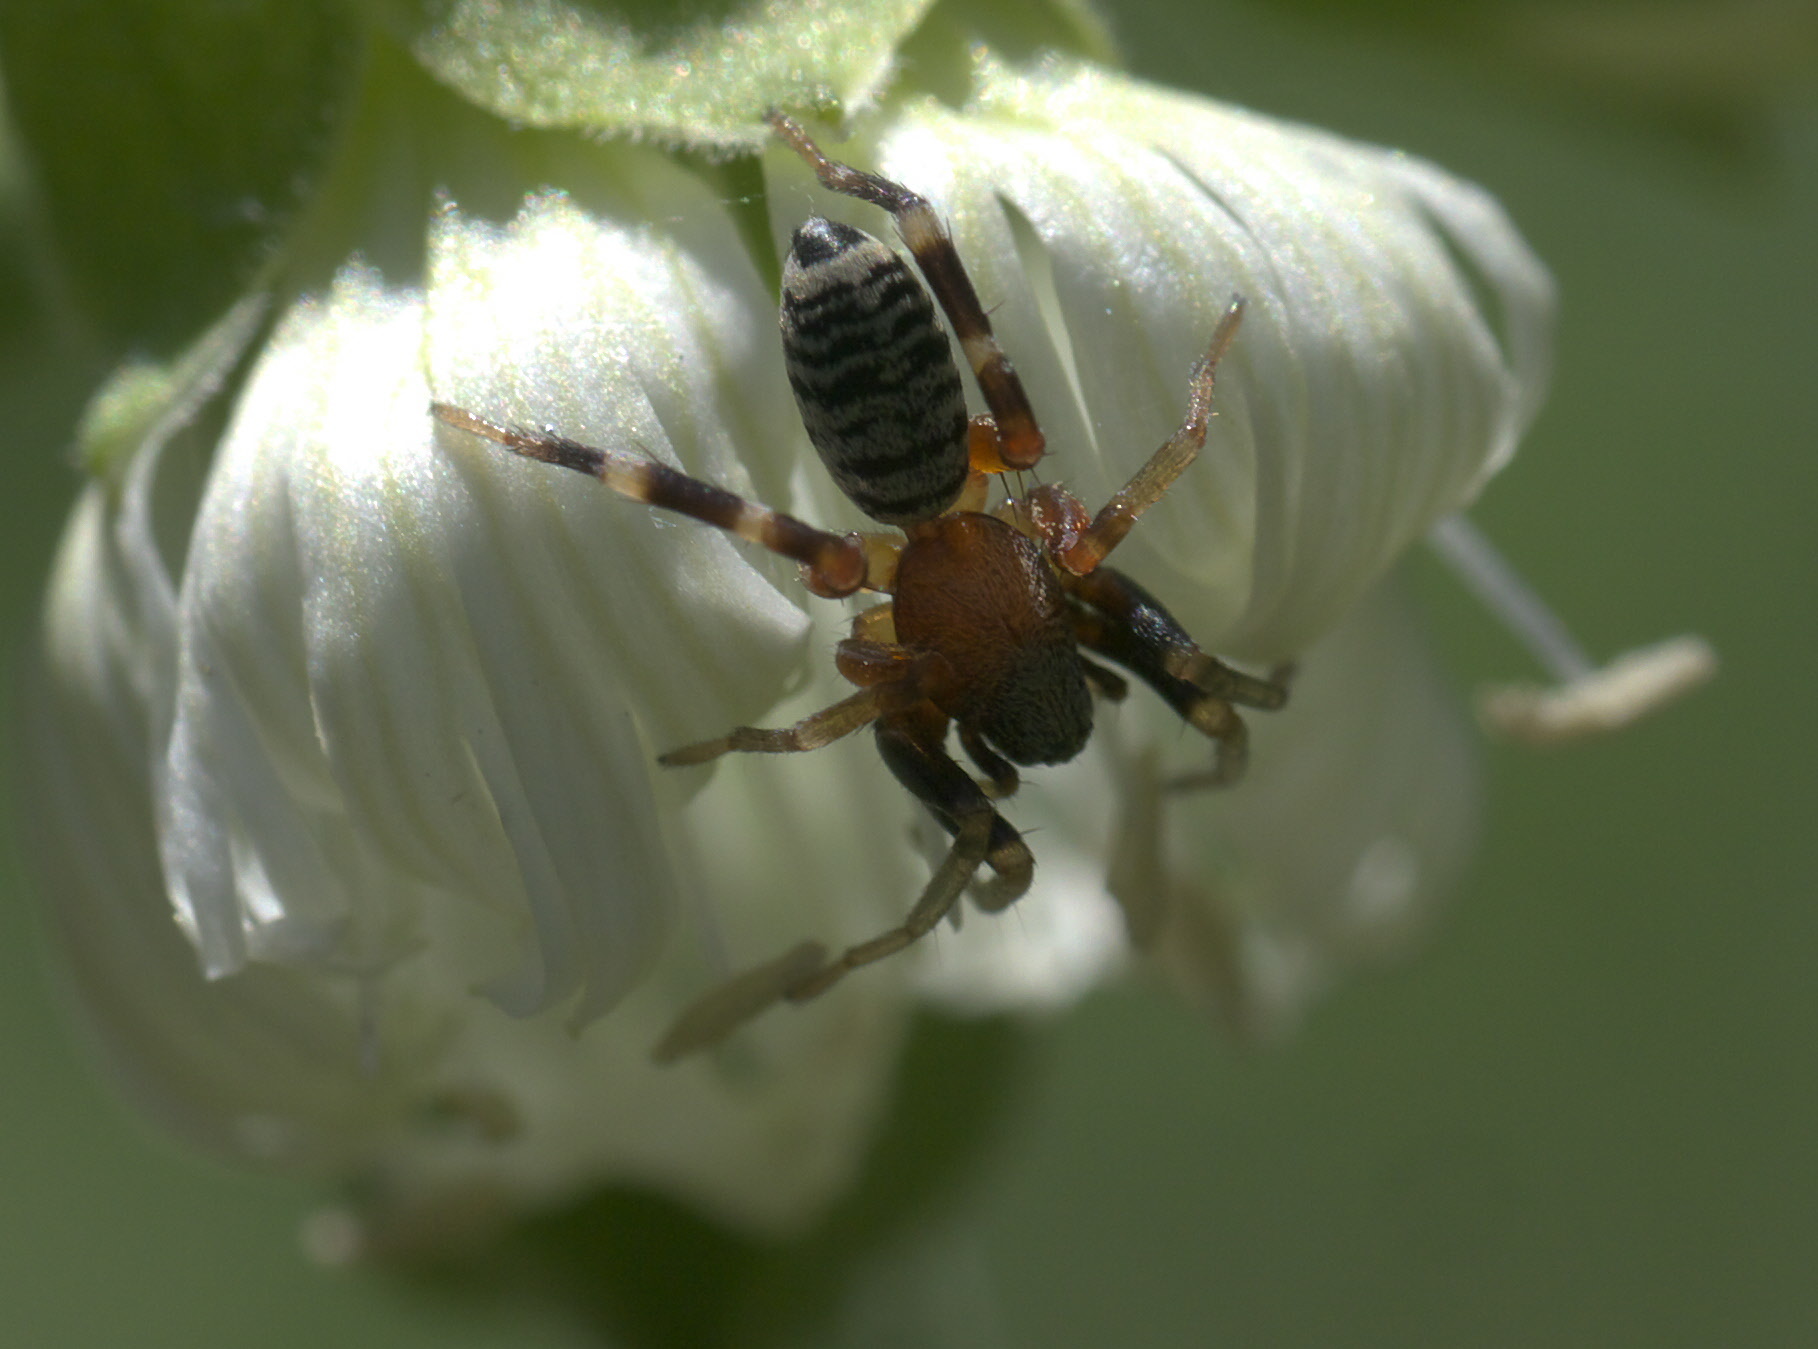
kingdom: Animalia
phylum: Arthropoda
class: Arachnida
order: Araneae
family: Corinnidae
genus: Castianeira
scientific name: Castianeira variata
